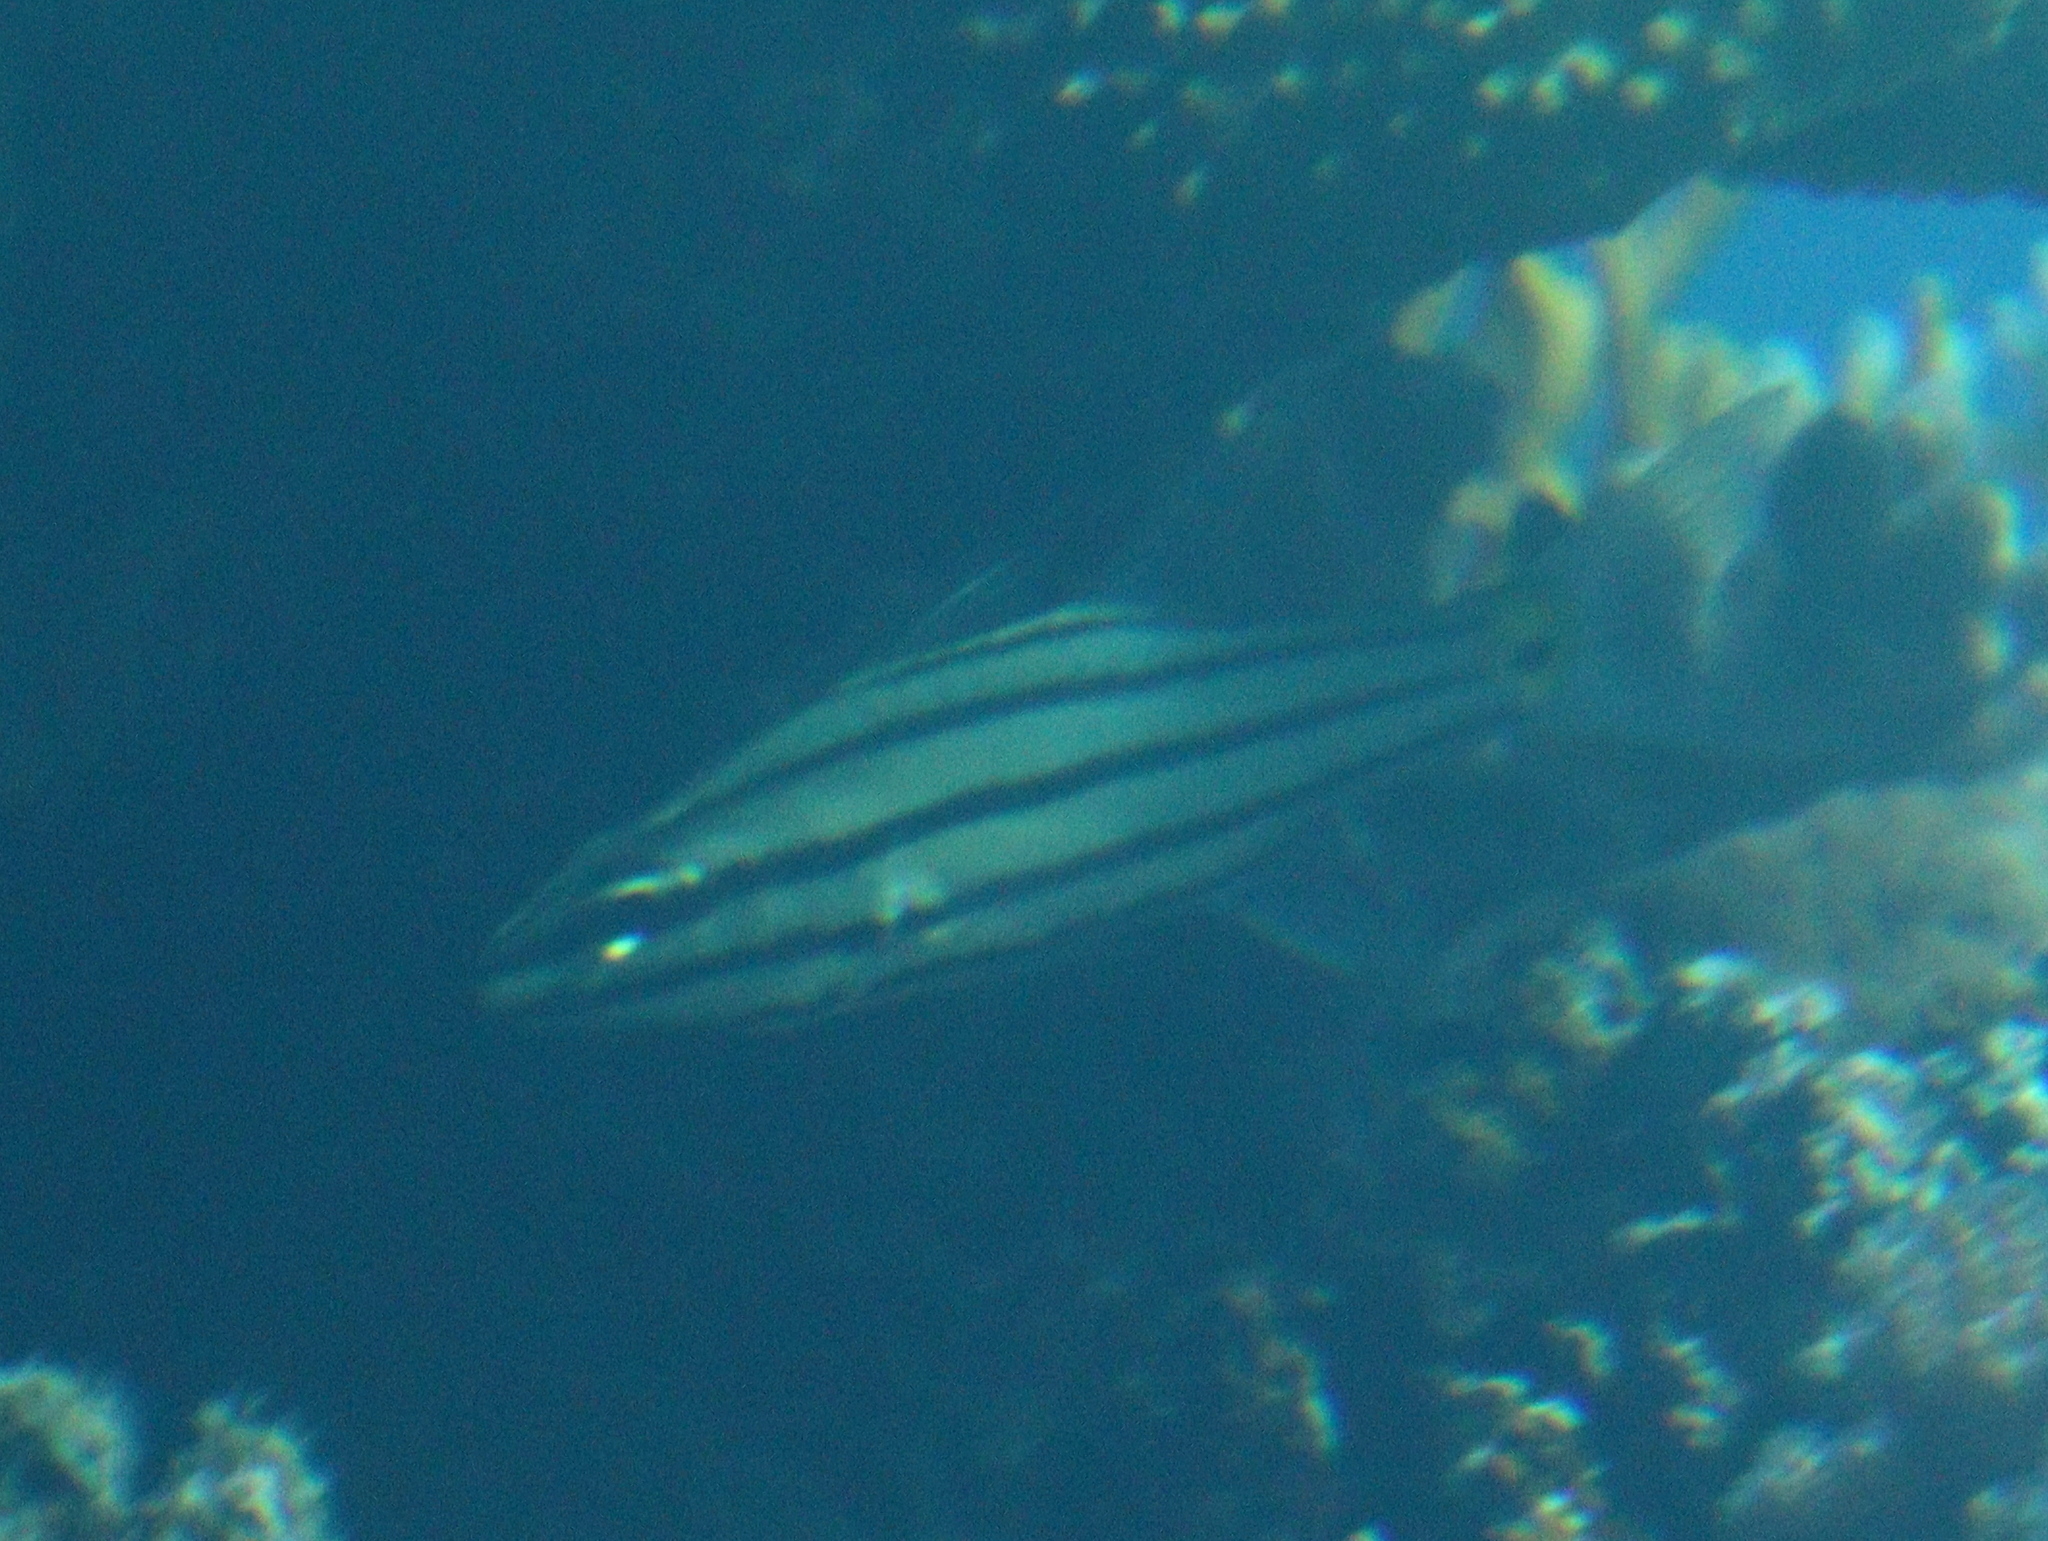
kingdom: Animalia
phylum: Chordata
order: Perciformes
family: Apogonidae
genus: Cheilodipterus
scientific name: Cheilodipterus quinquelineatus
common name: Five-lined cardinalfish
